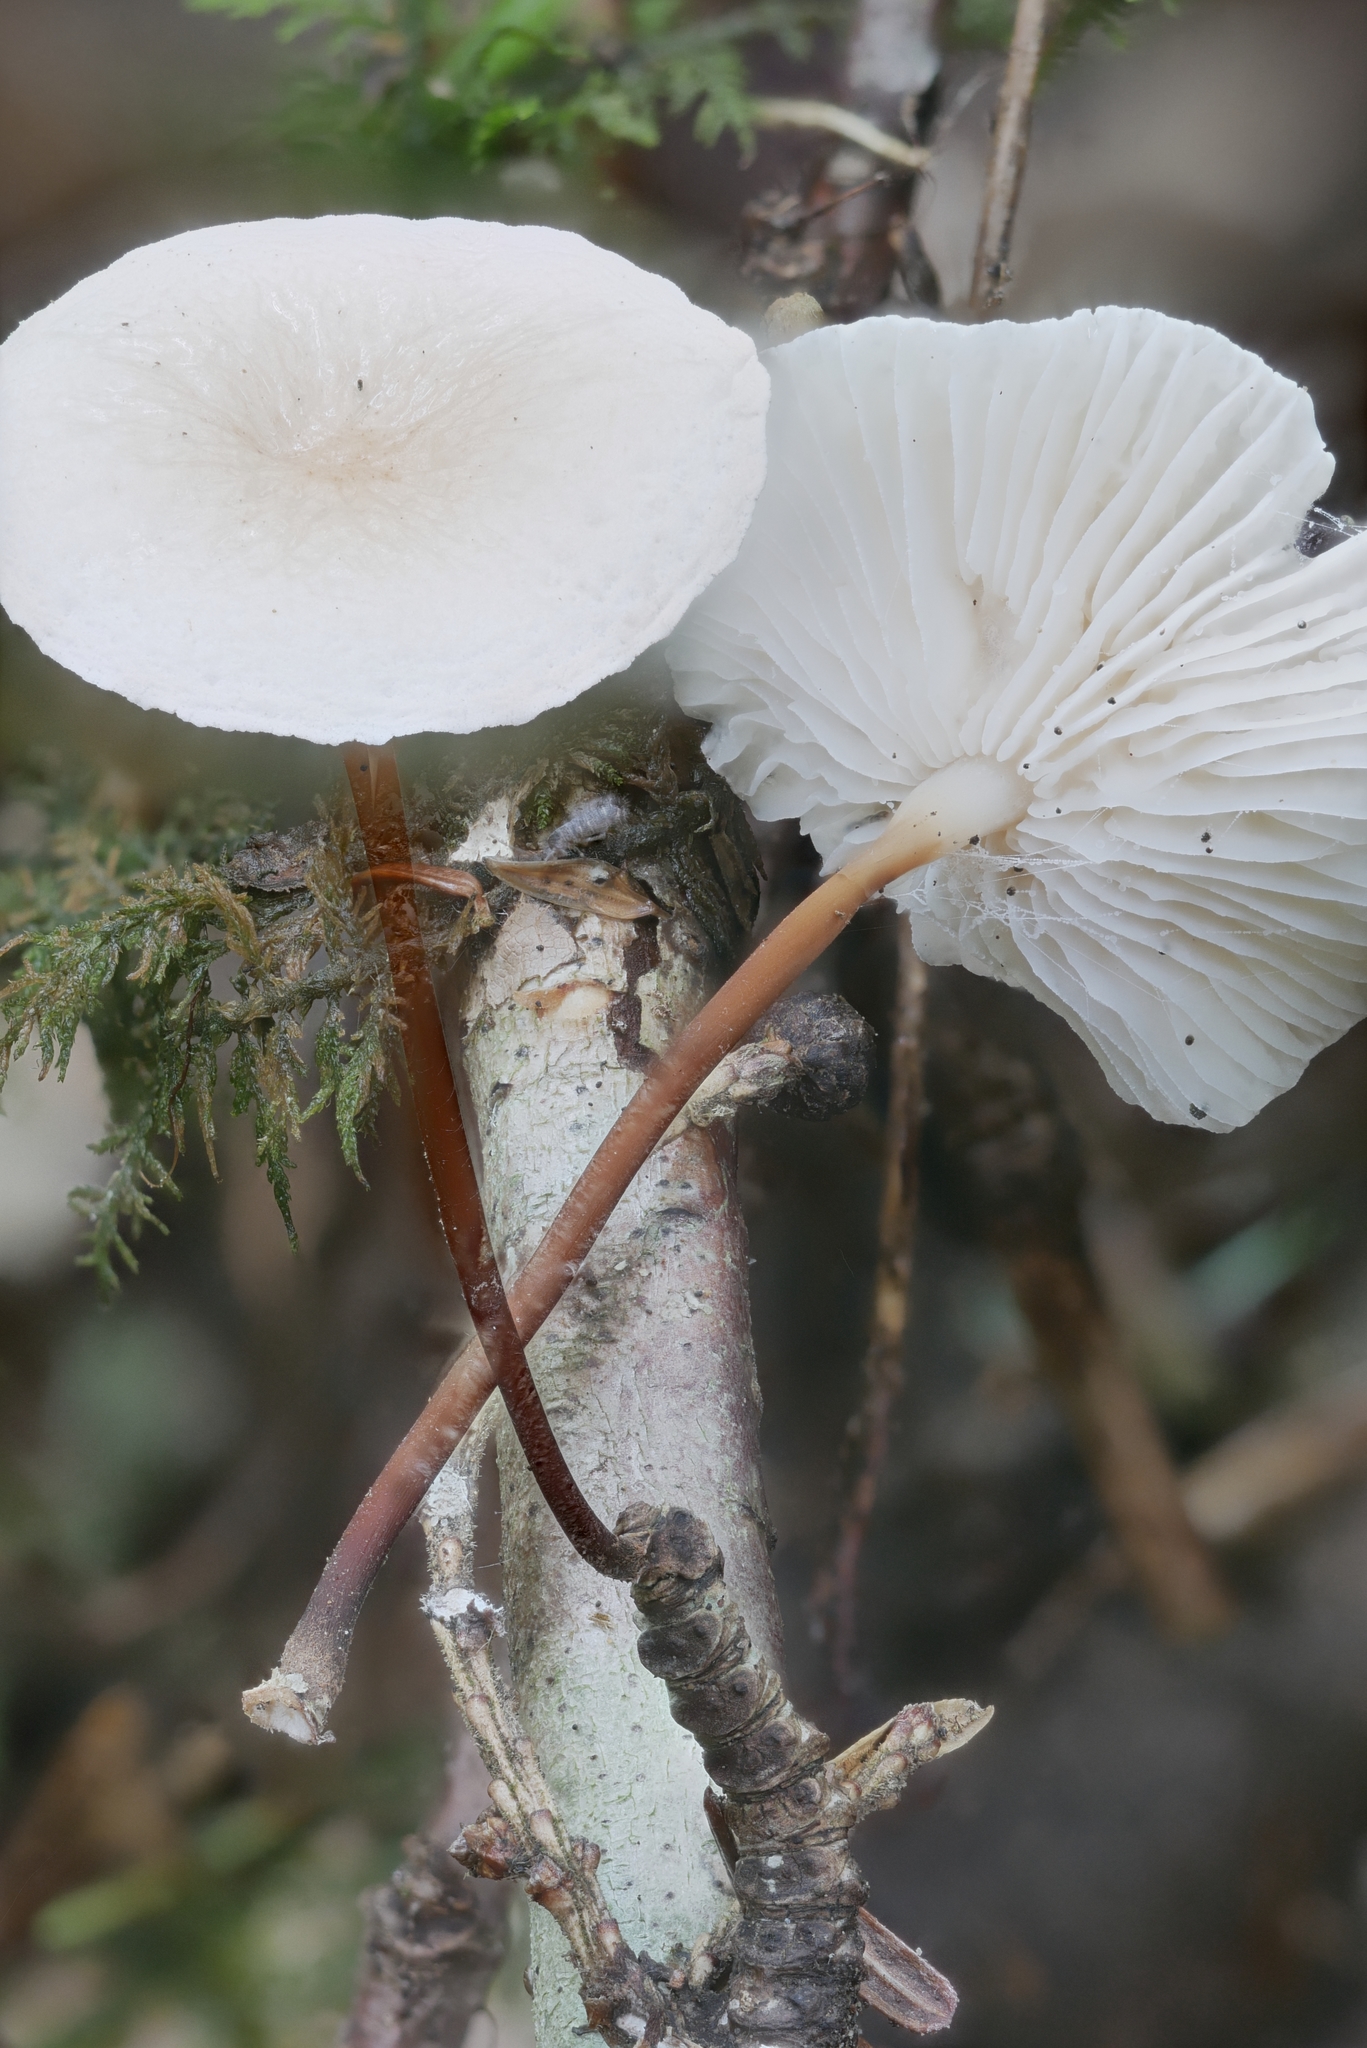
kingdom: Fungi
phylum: Basidiomycota
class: Agaricomycetes
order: Agaricales
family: Omphalotaceae
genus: Mycetinis
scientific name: Mycetinis scorodonius
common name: Vampires bane
